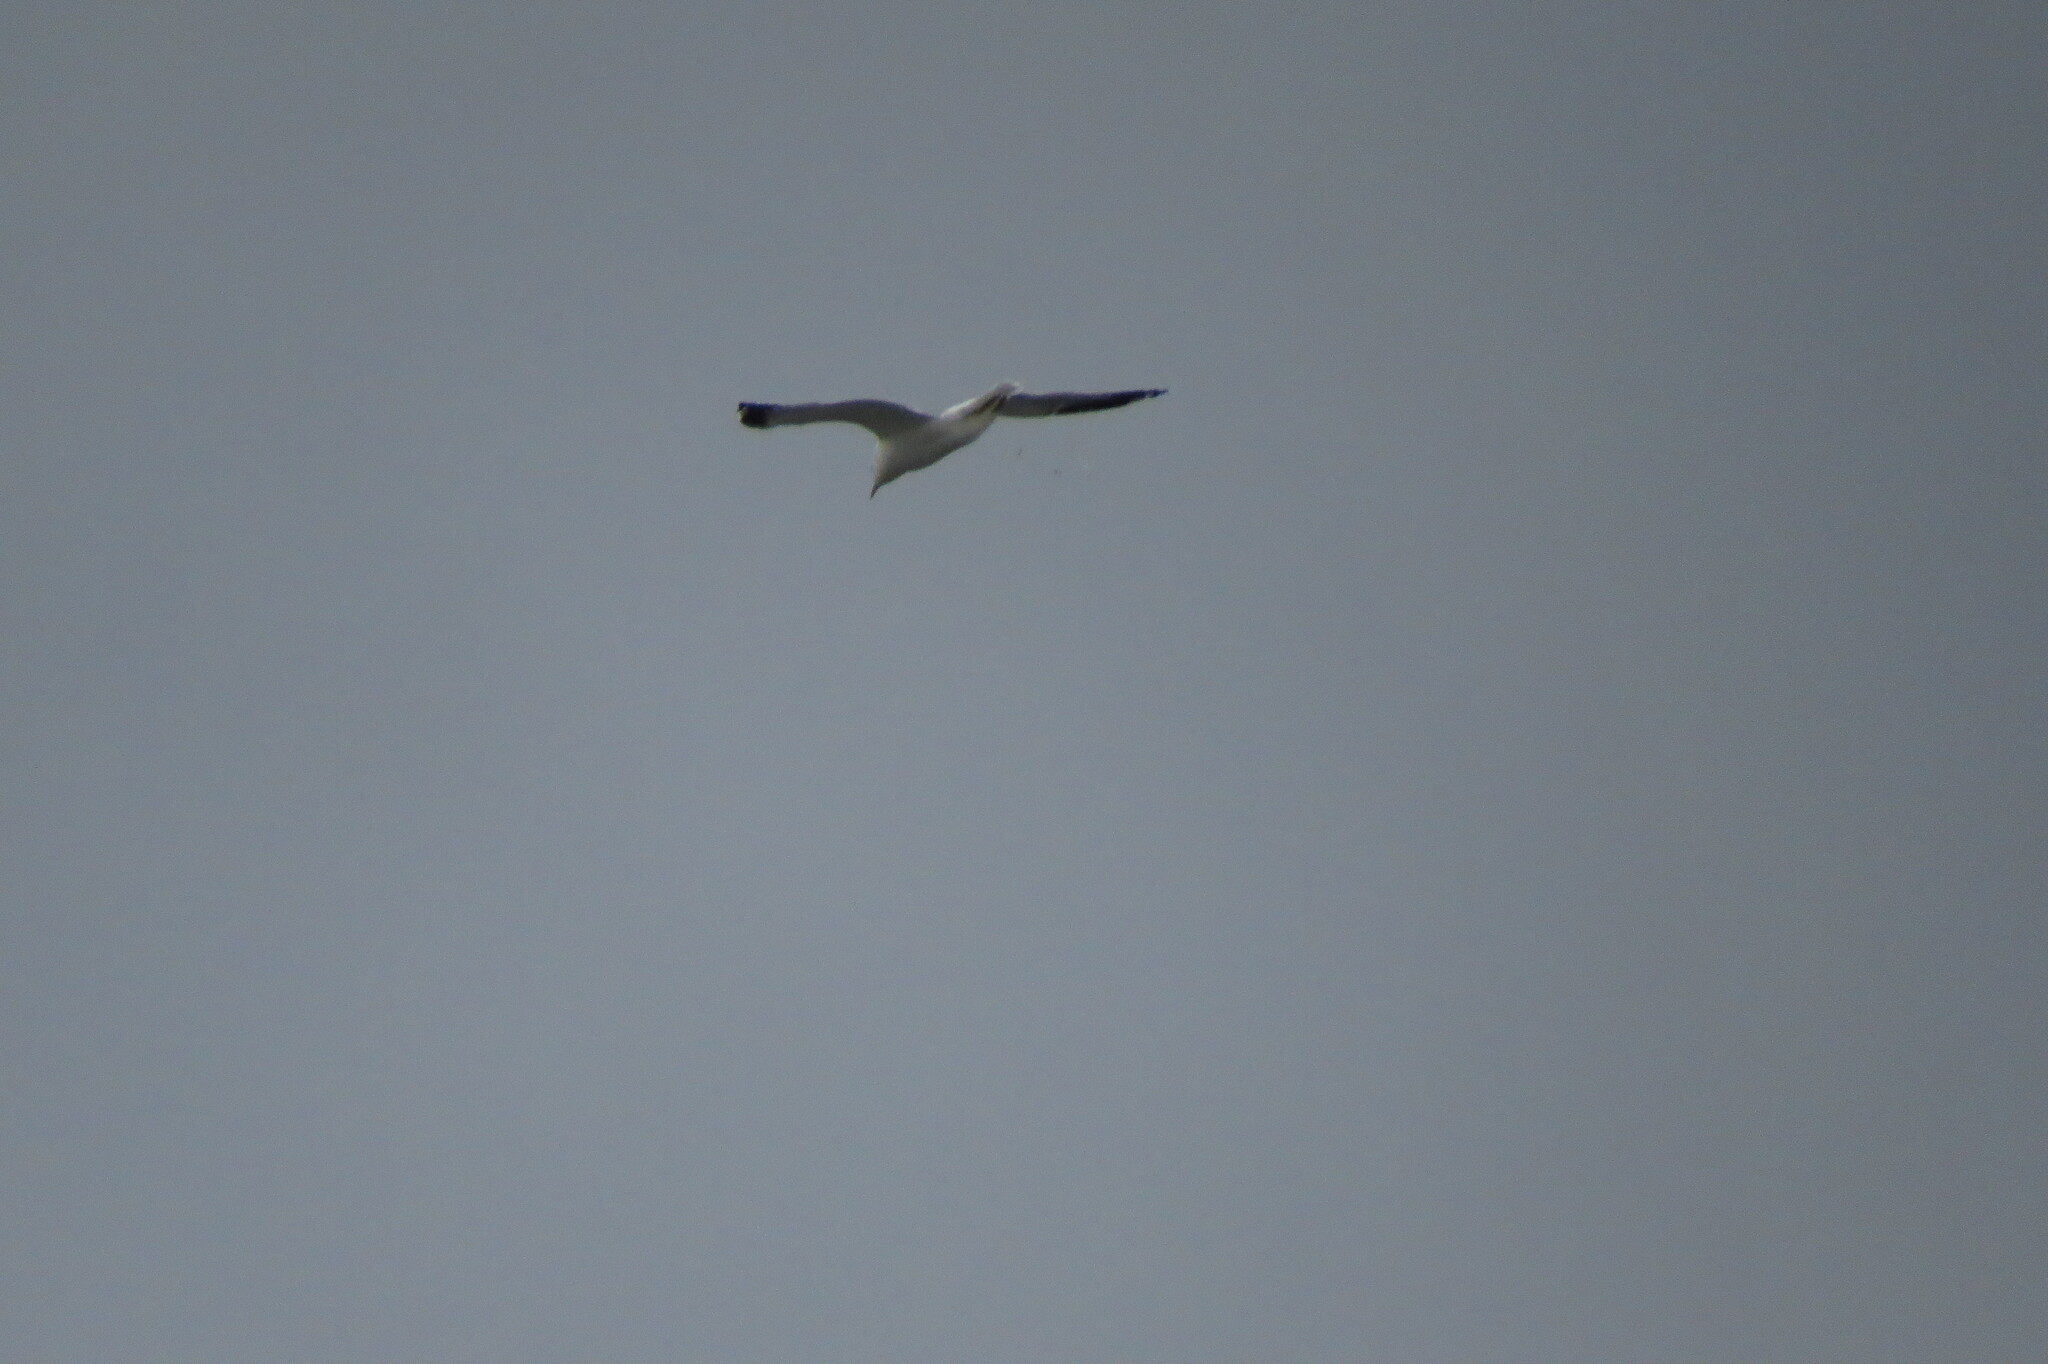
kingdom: Animalia
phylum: Chordata
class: Aves
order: Charadriiformes
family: Laridae
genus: Larus
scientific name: Larus canus
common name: Mew gull
